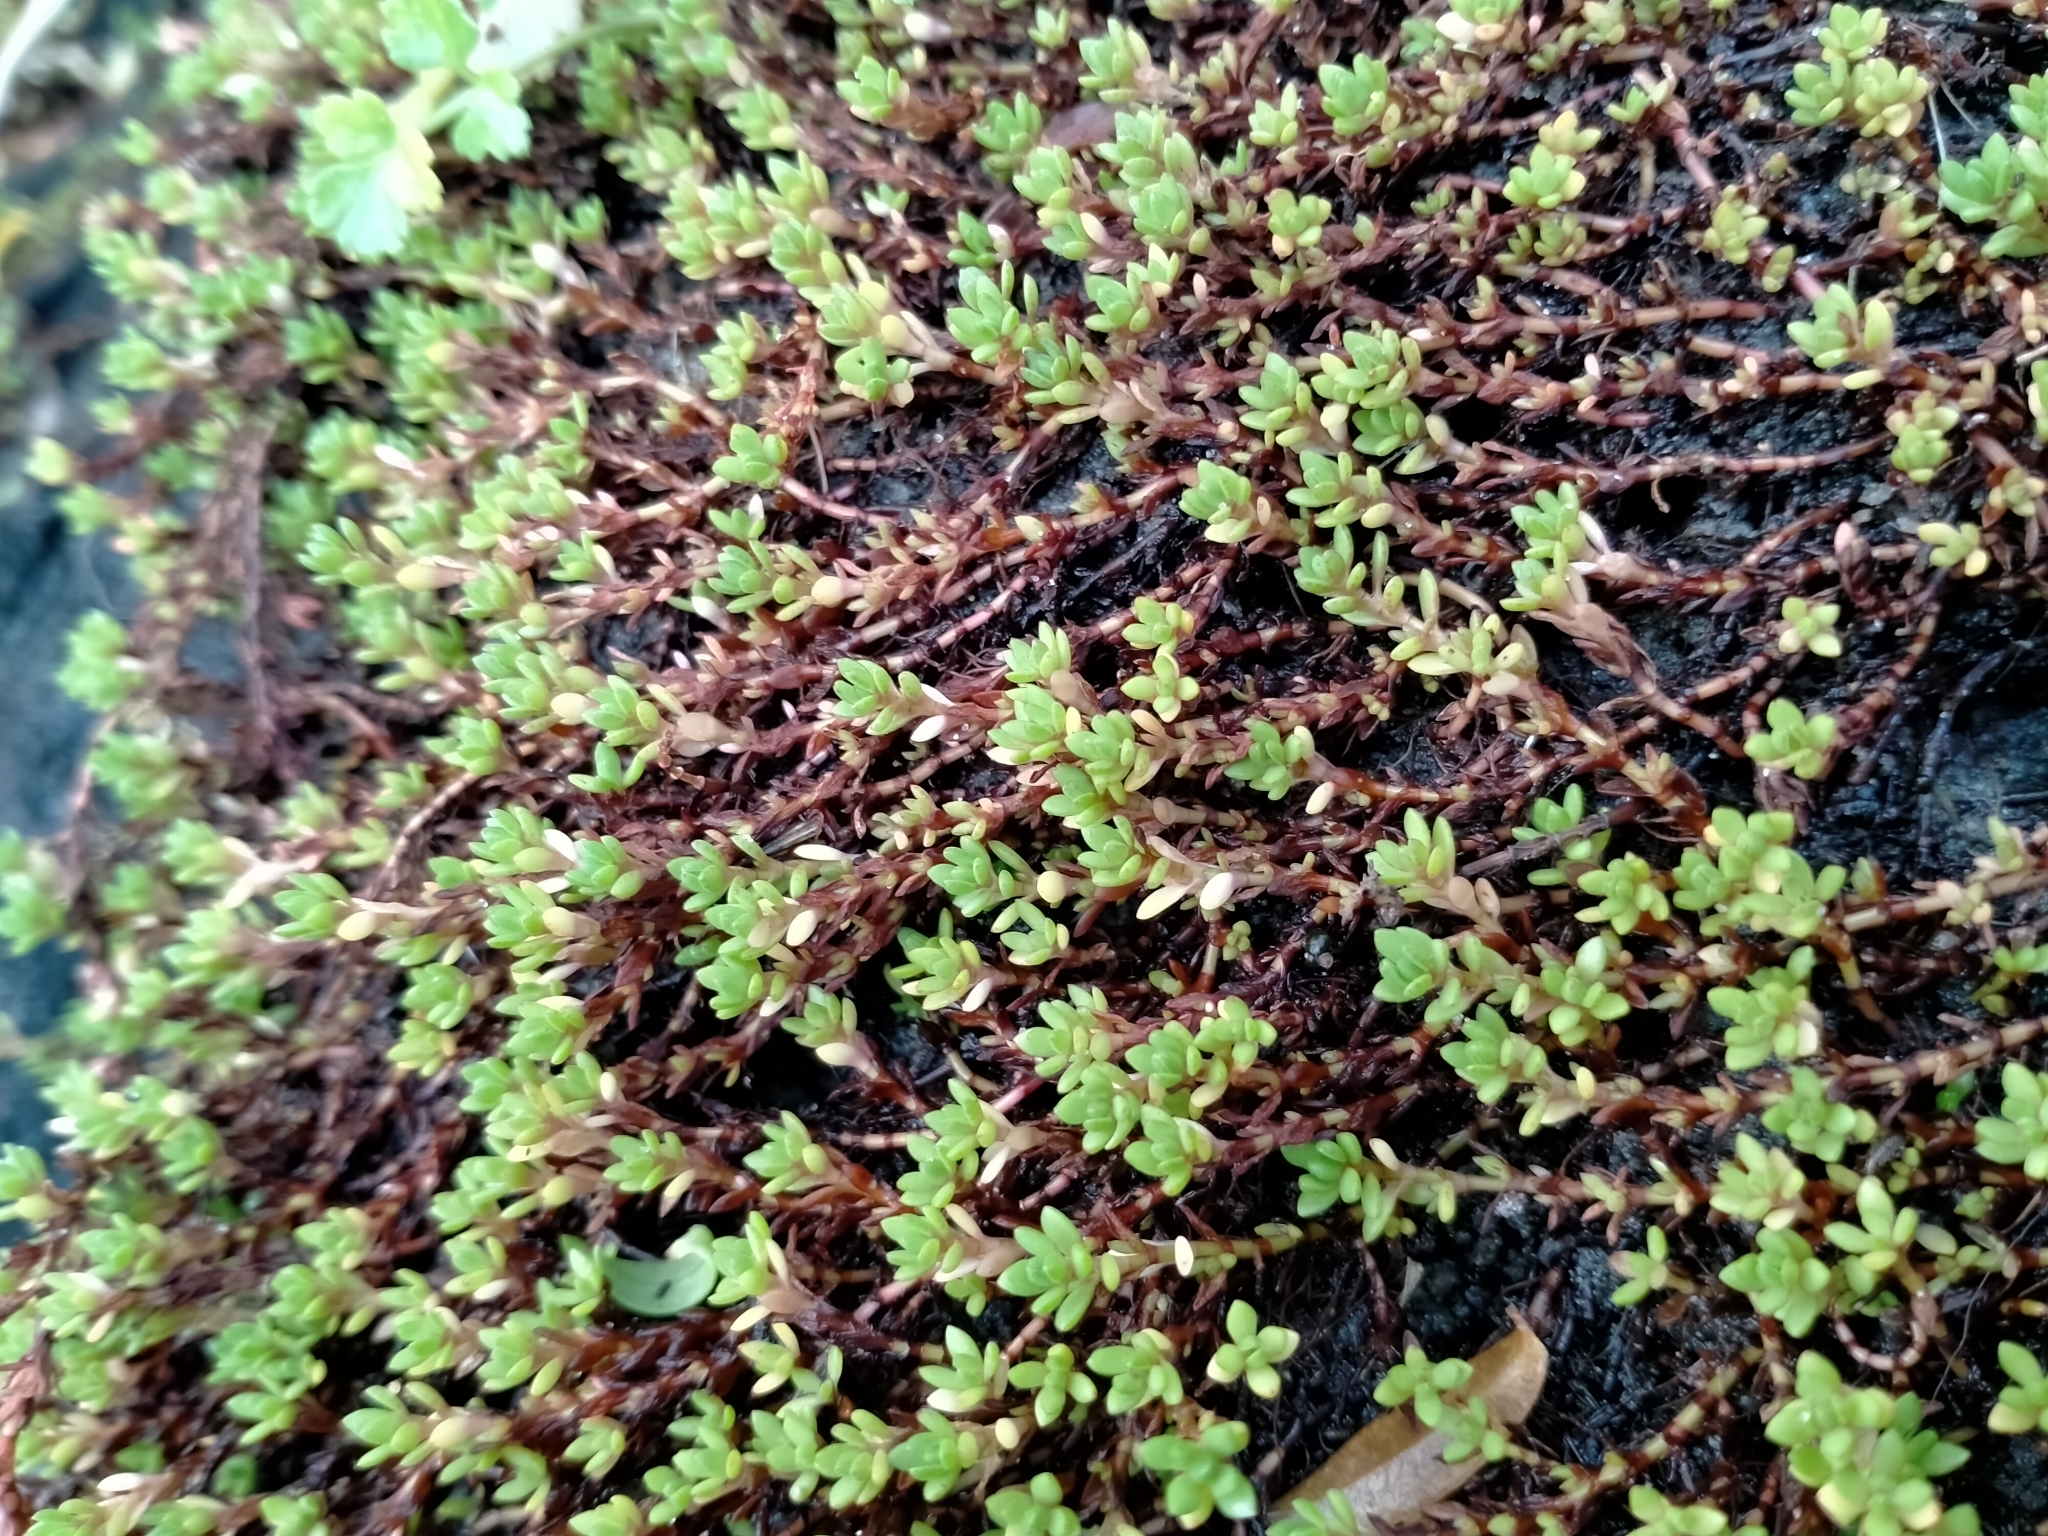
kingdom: Plantae
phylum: Tracheophyta
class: Magnoliopsida
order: Saxifragales
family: Crassulaceae
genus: Crassula
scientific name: Crassula moschata
